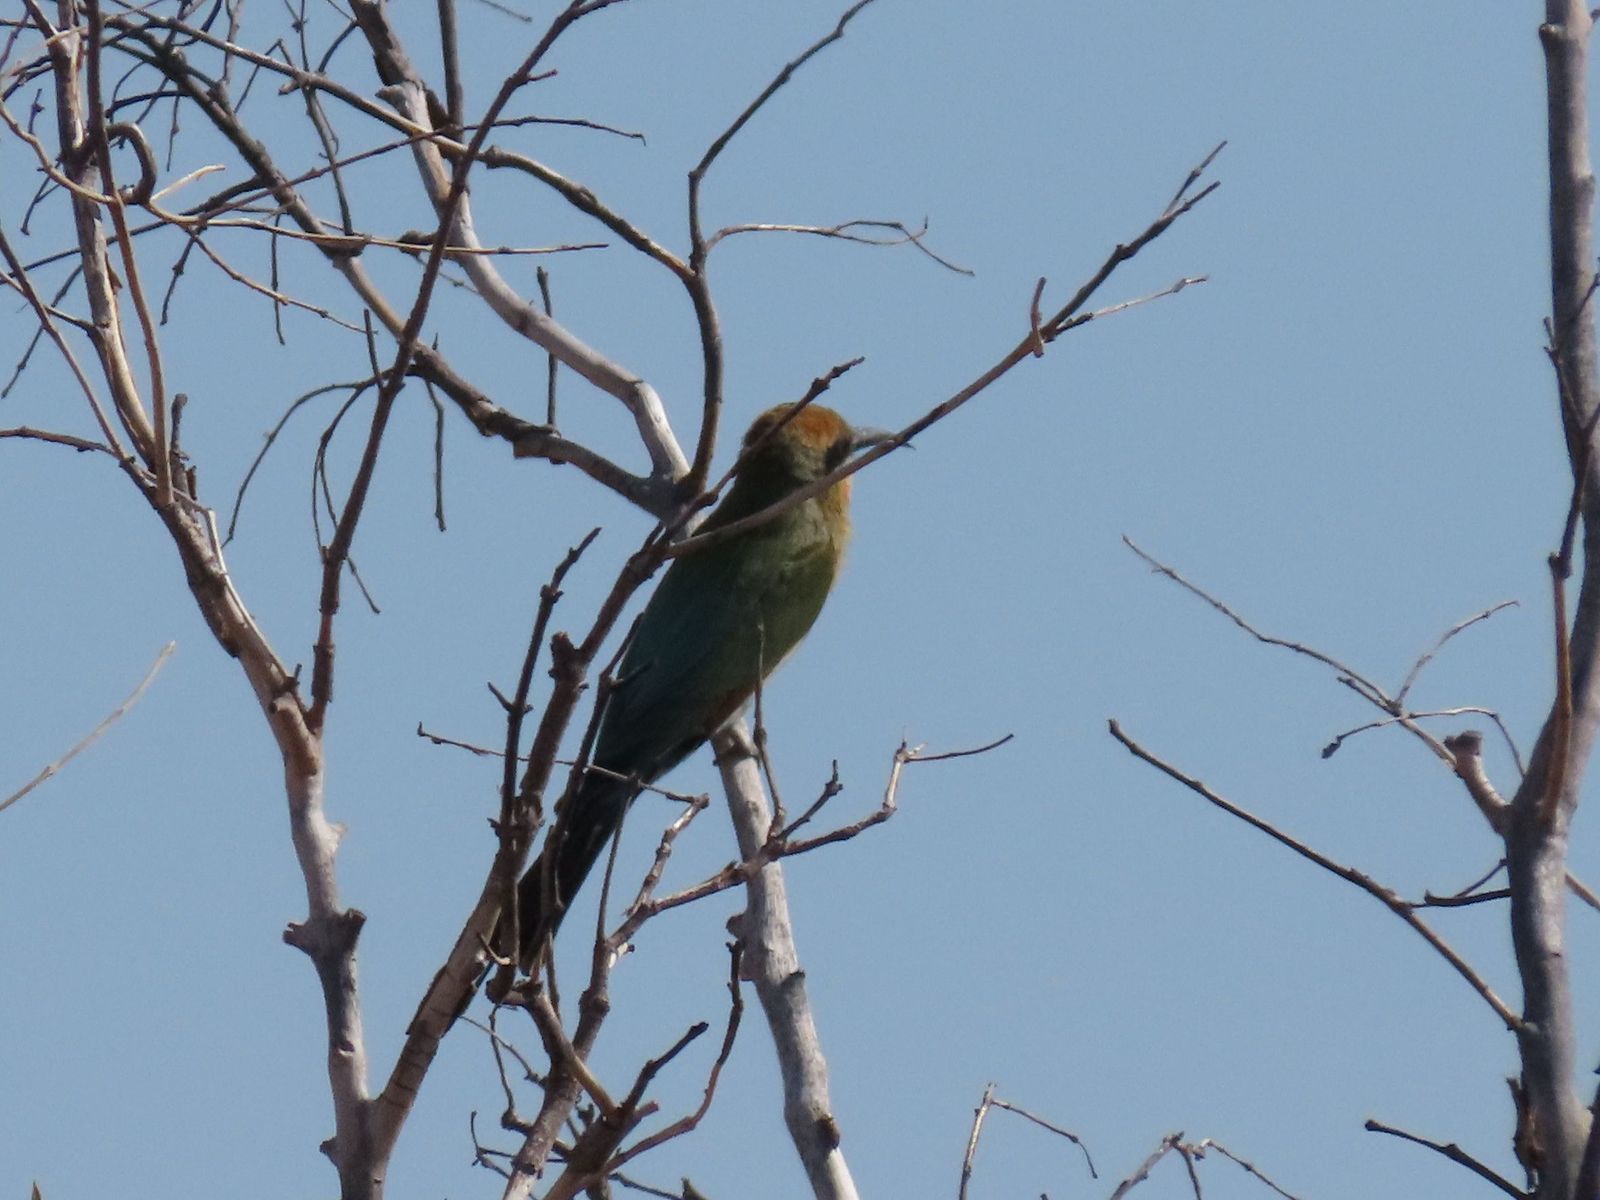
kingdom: Animalia
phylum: Chordata
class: Aves
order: Coraciiformes
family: Meropidae
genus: Merops
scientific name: Merops ornatus
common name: Rainbow bee-eater
